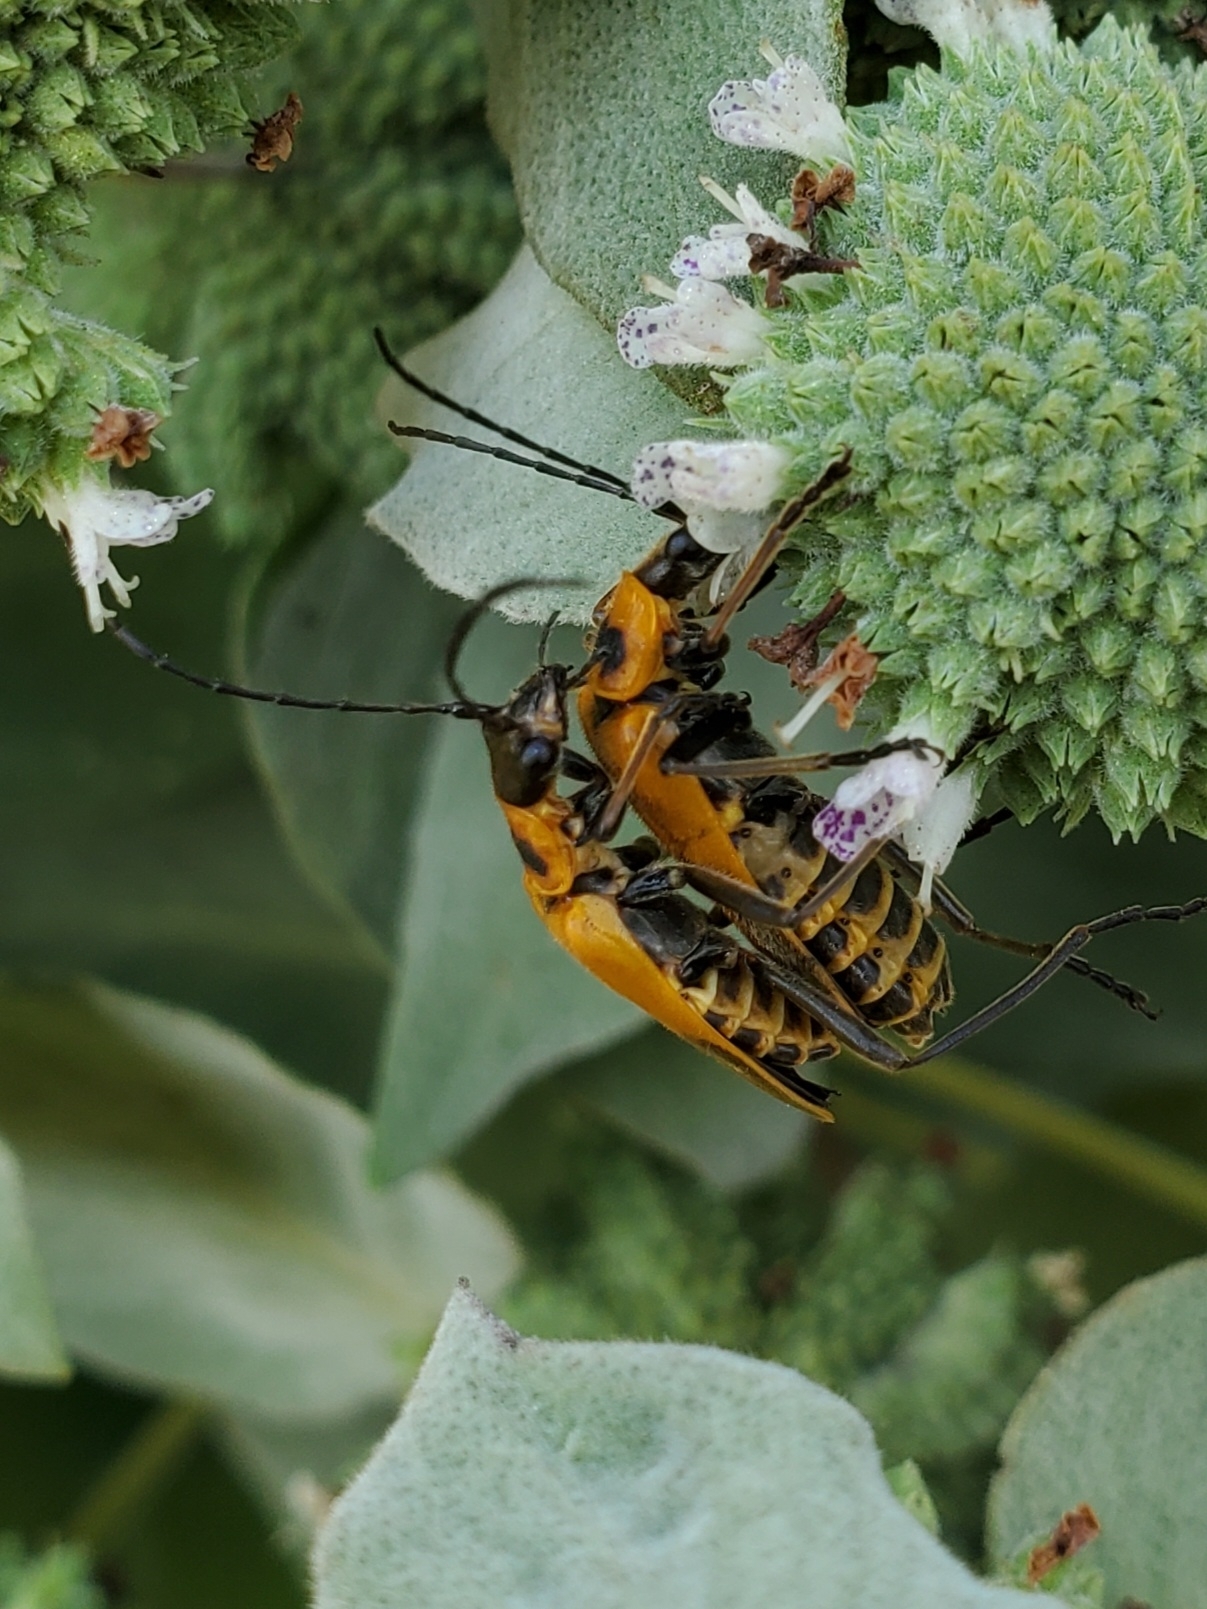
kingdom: Animalia
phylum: Arthropoda
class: Insecta
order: Coleoptera
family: Cantharidae
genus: Chauliognathus
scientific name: Chauliognathus pensylvanicus
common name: Goldenrod soldier beetle
